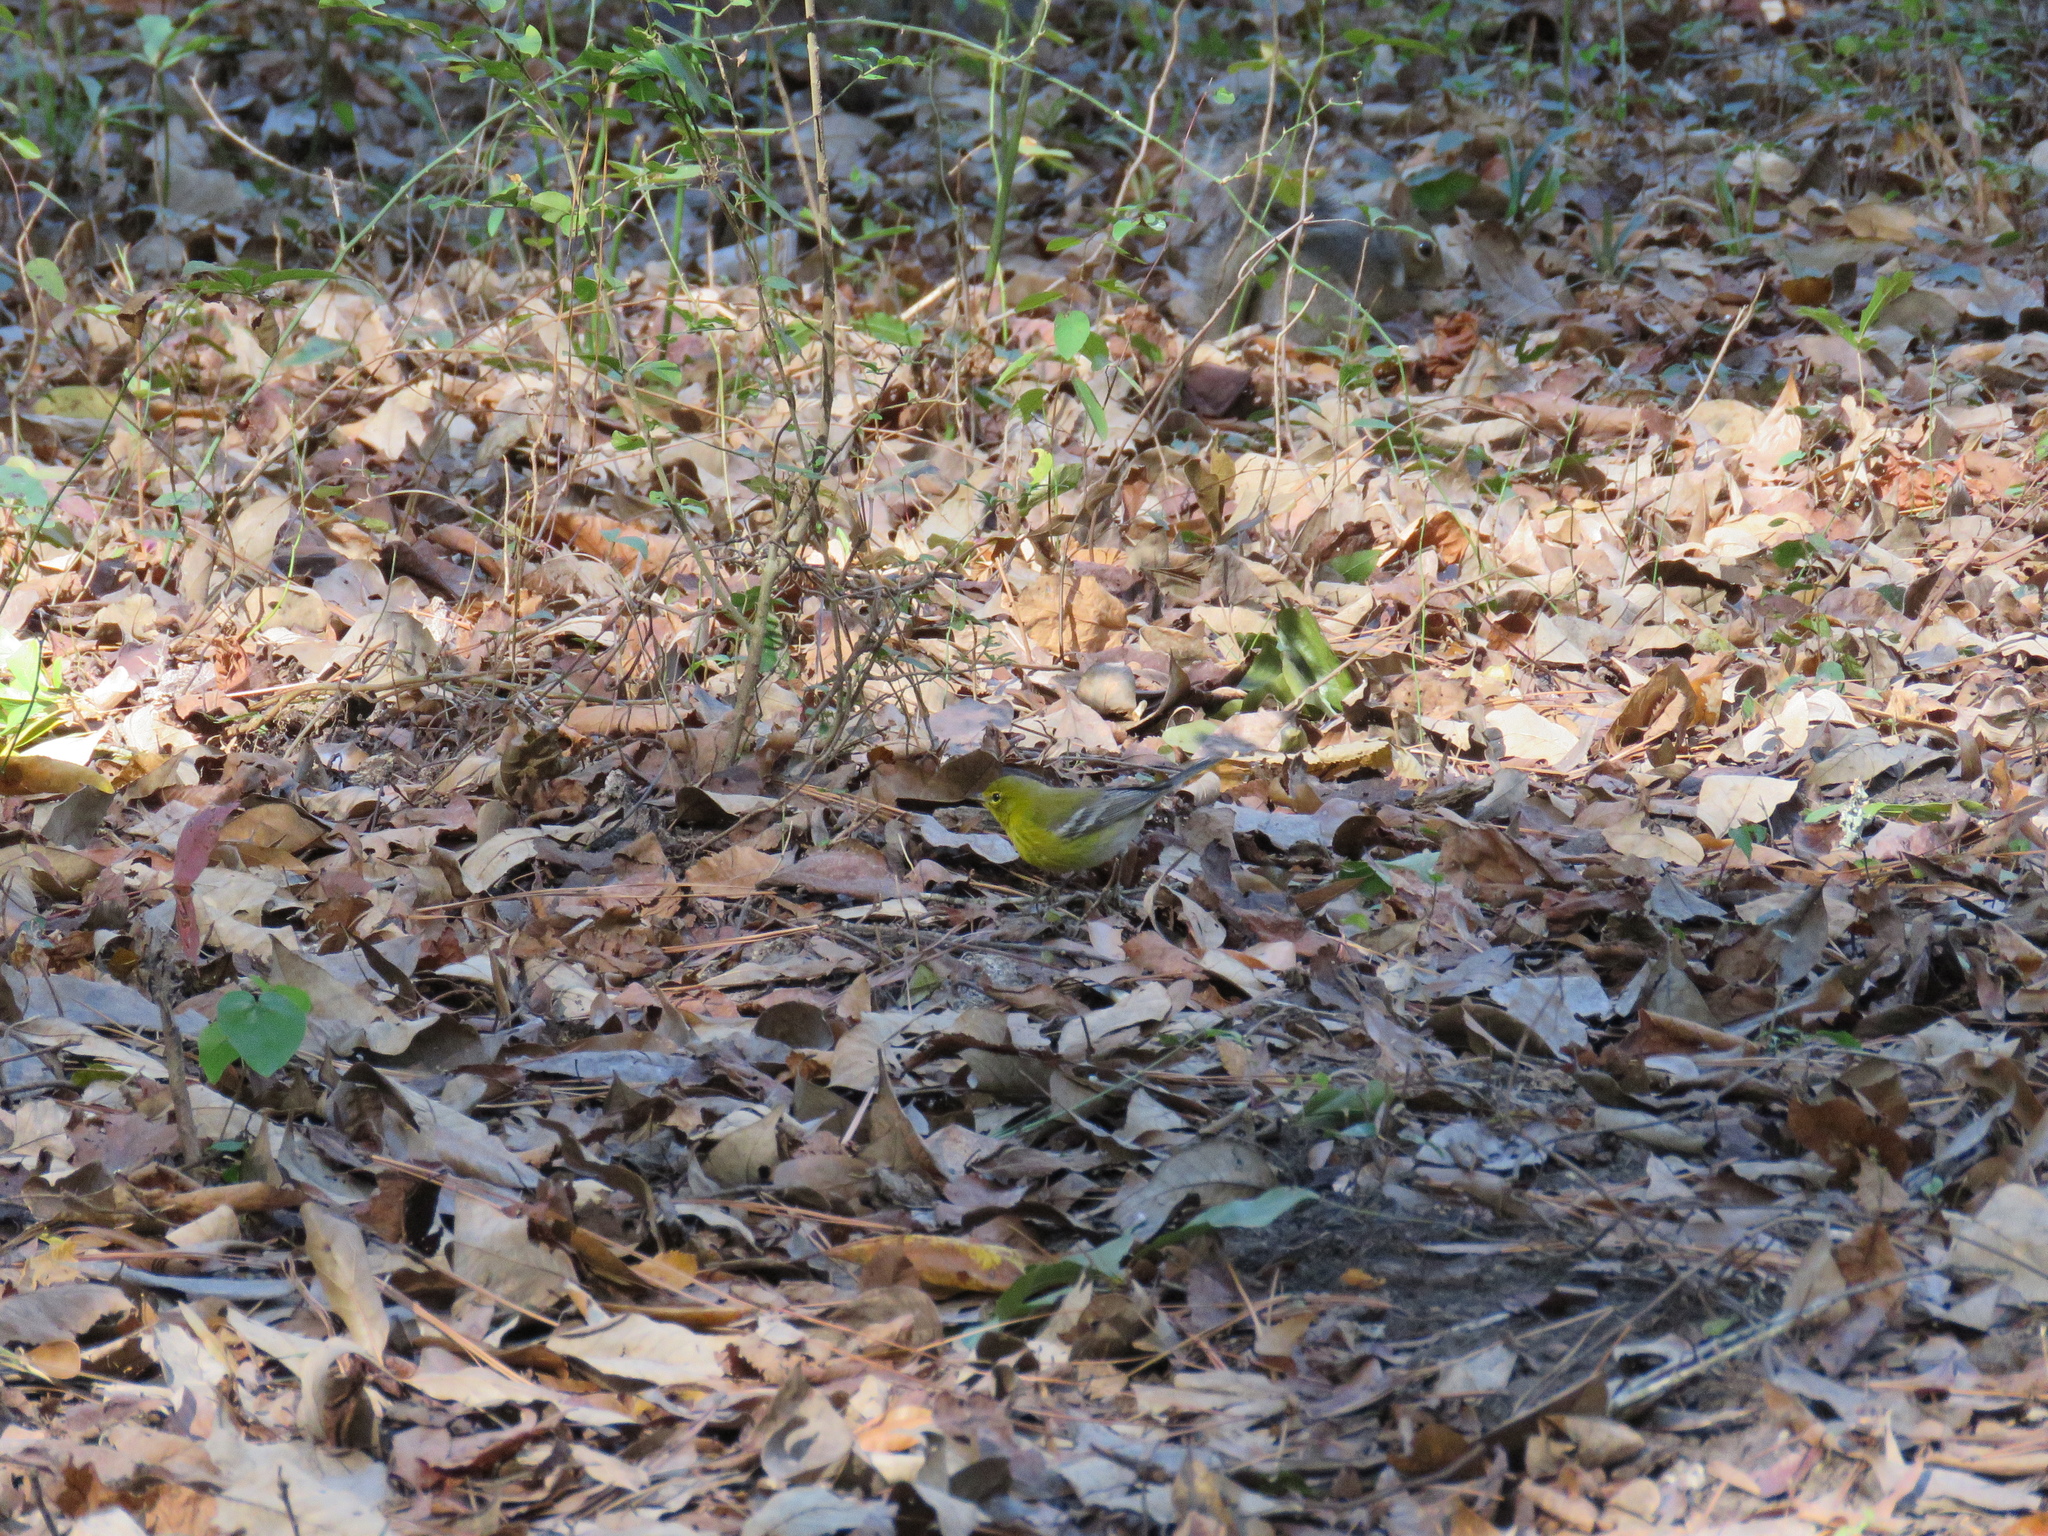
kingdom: Animalia
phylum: Chordata
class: Aves
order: Passeriformes
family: Parulidae
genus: Setophaga
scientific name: Setophaga pinus
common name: Pine warbler
